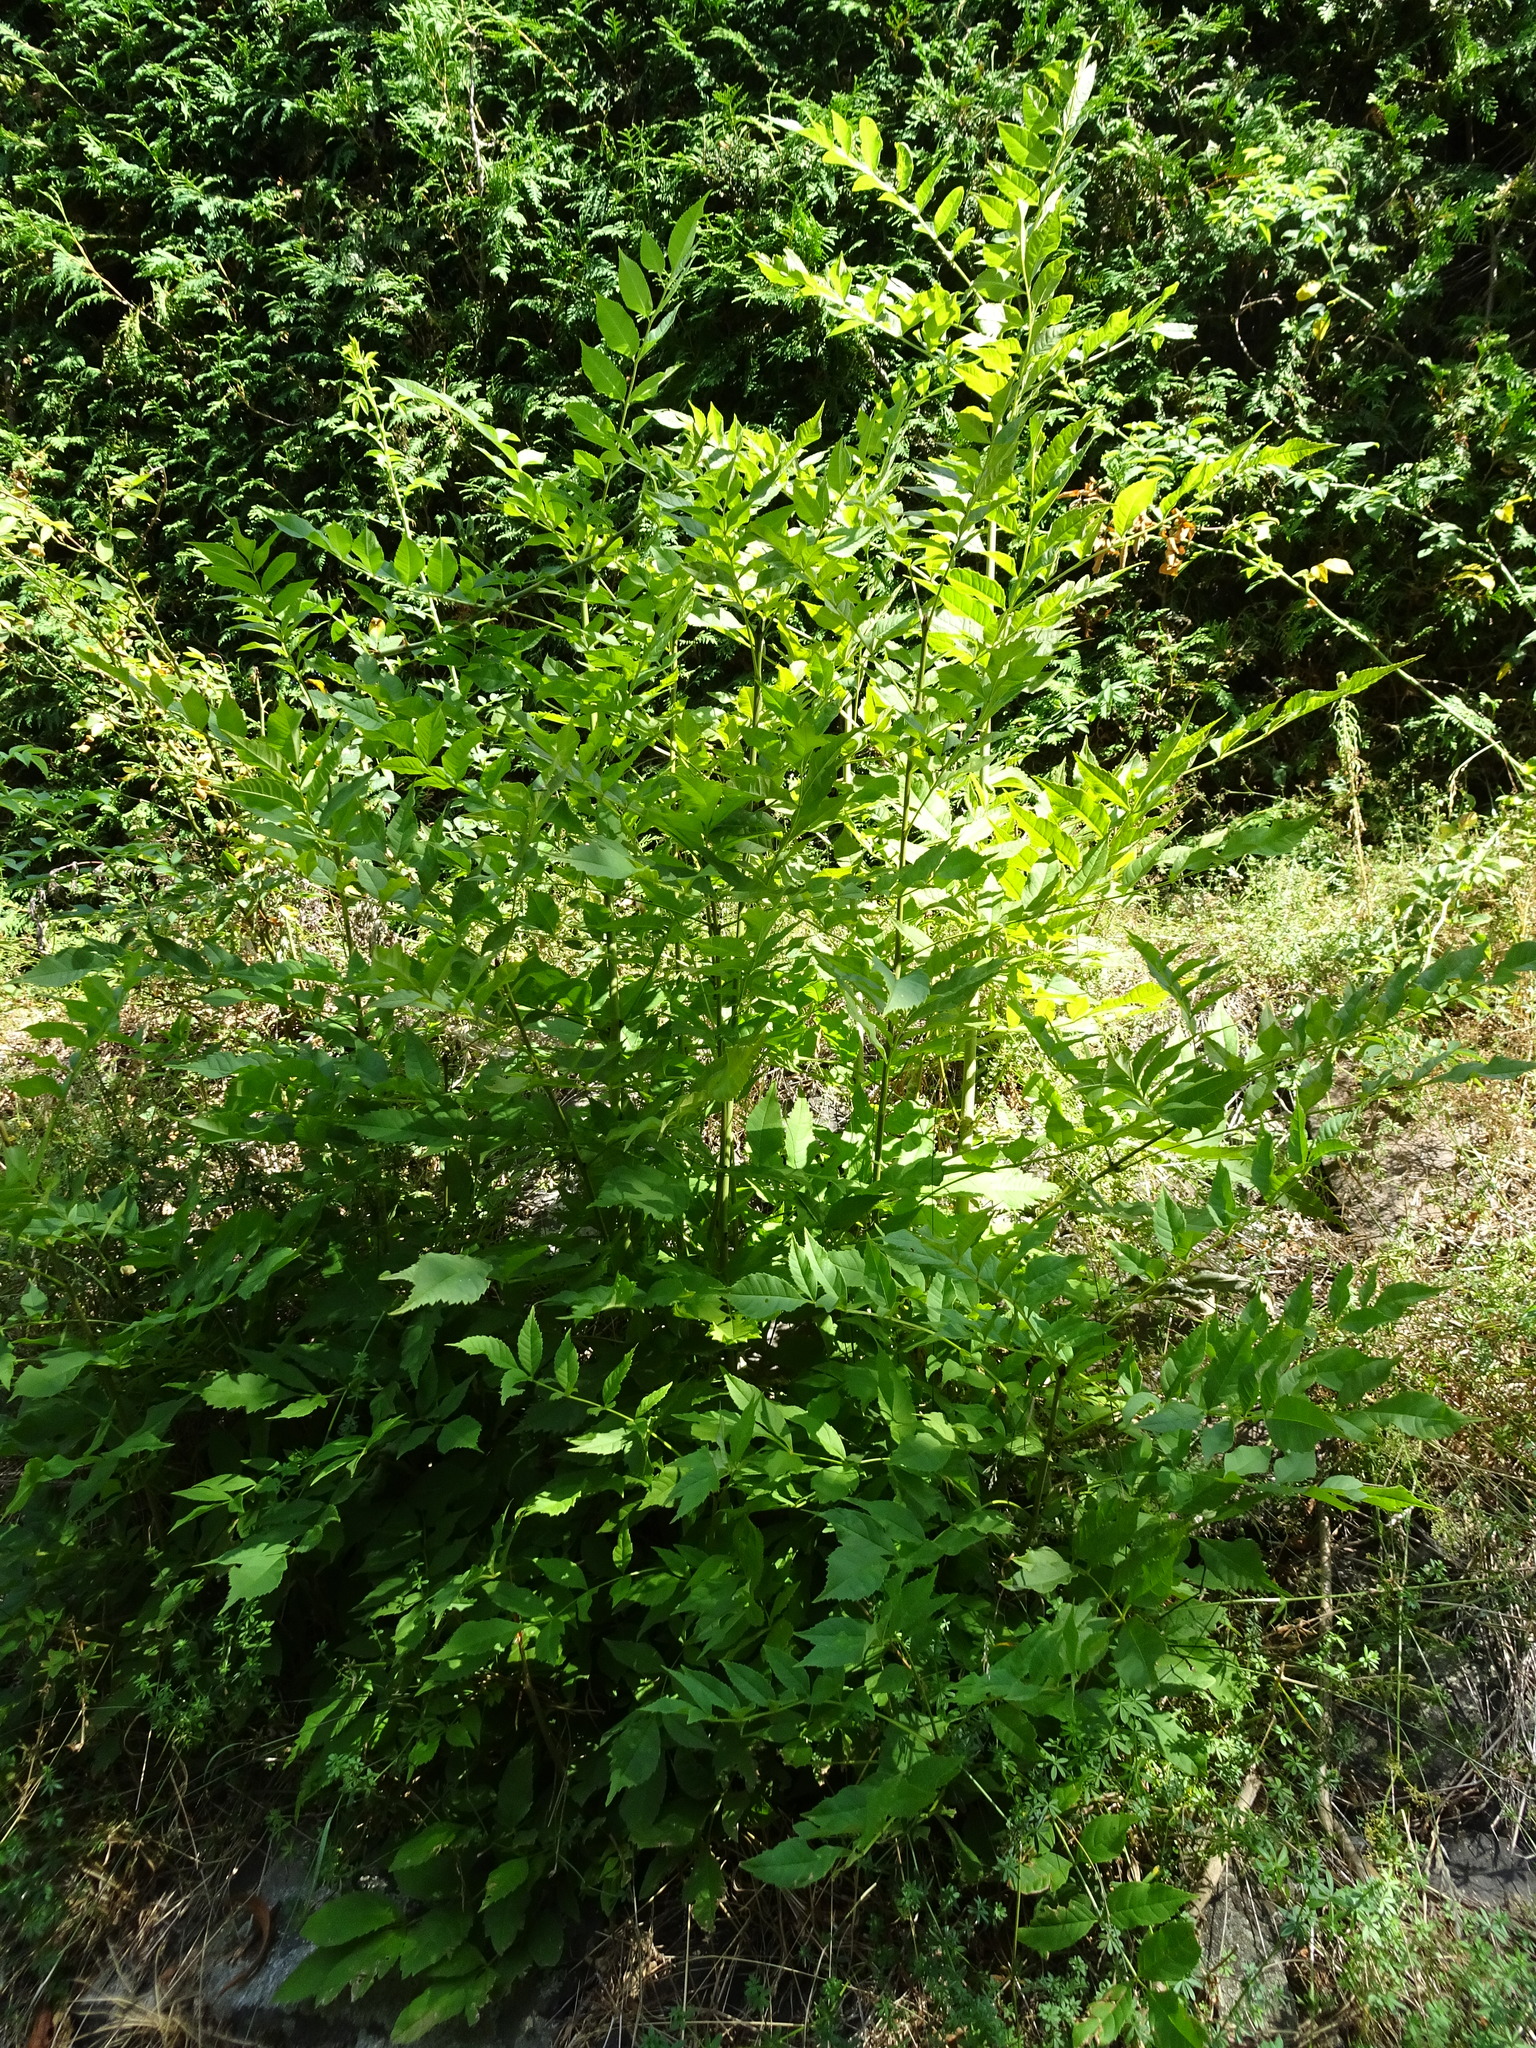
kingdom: Plantae
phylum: Tracheophyta
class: Magnoliopsida
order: Lamiales
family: Oleaceae
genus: Fraxinus
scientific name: Fraxinus excelsior
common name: European ash
